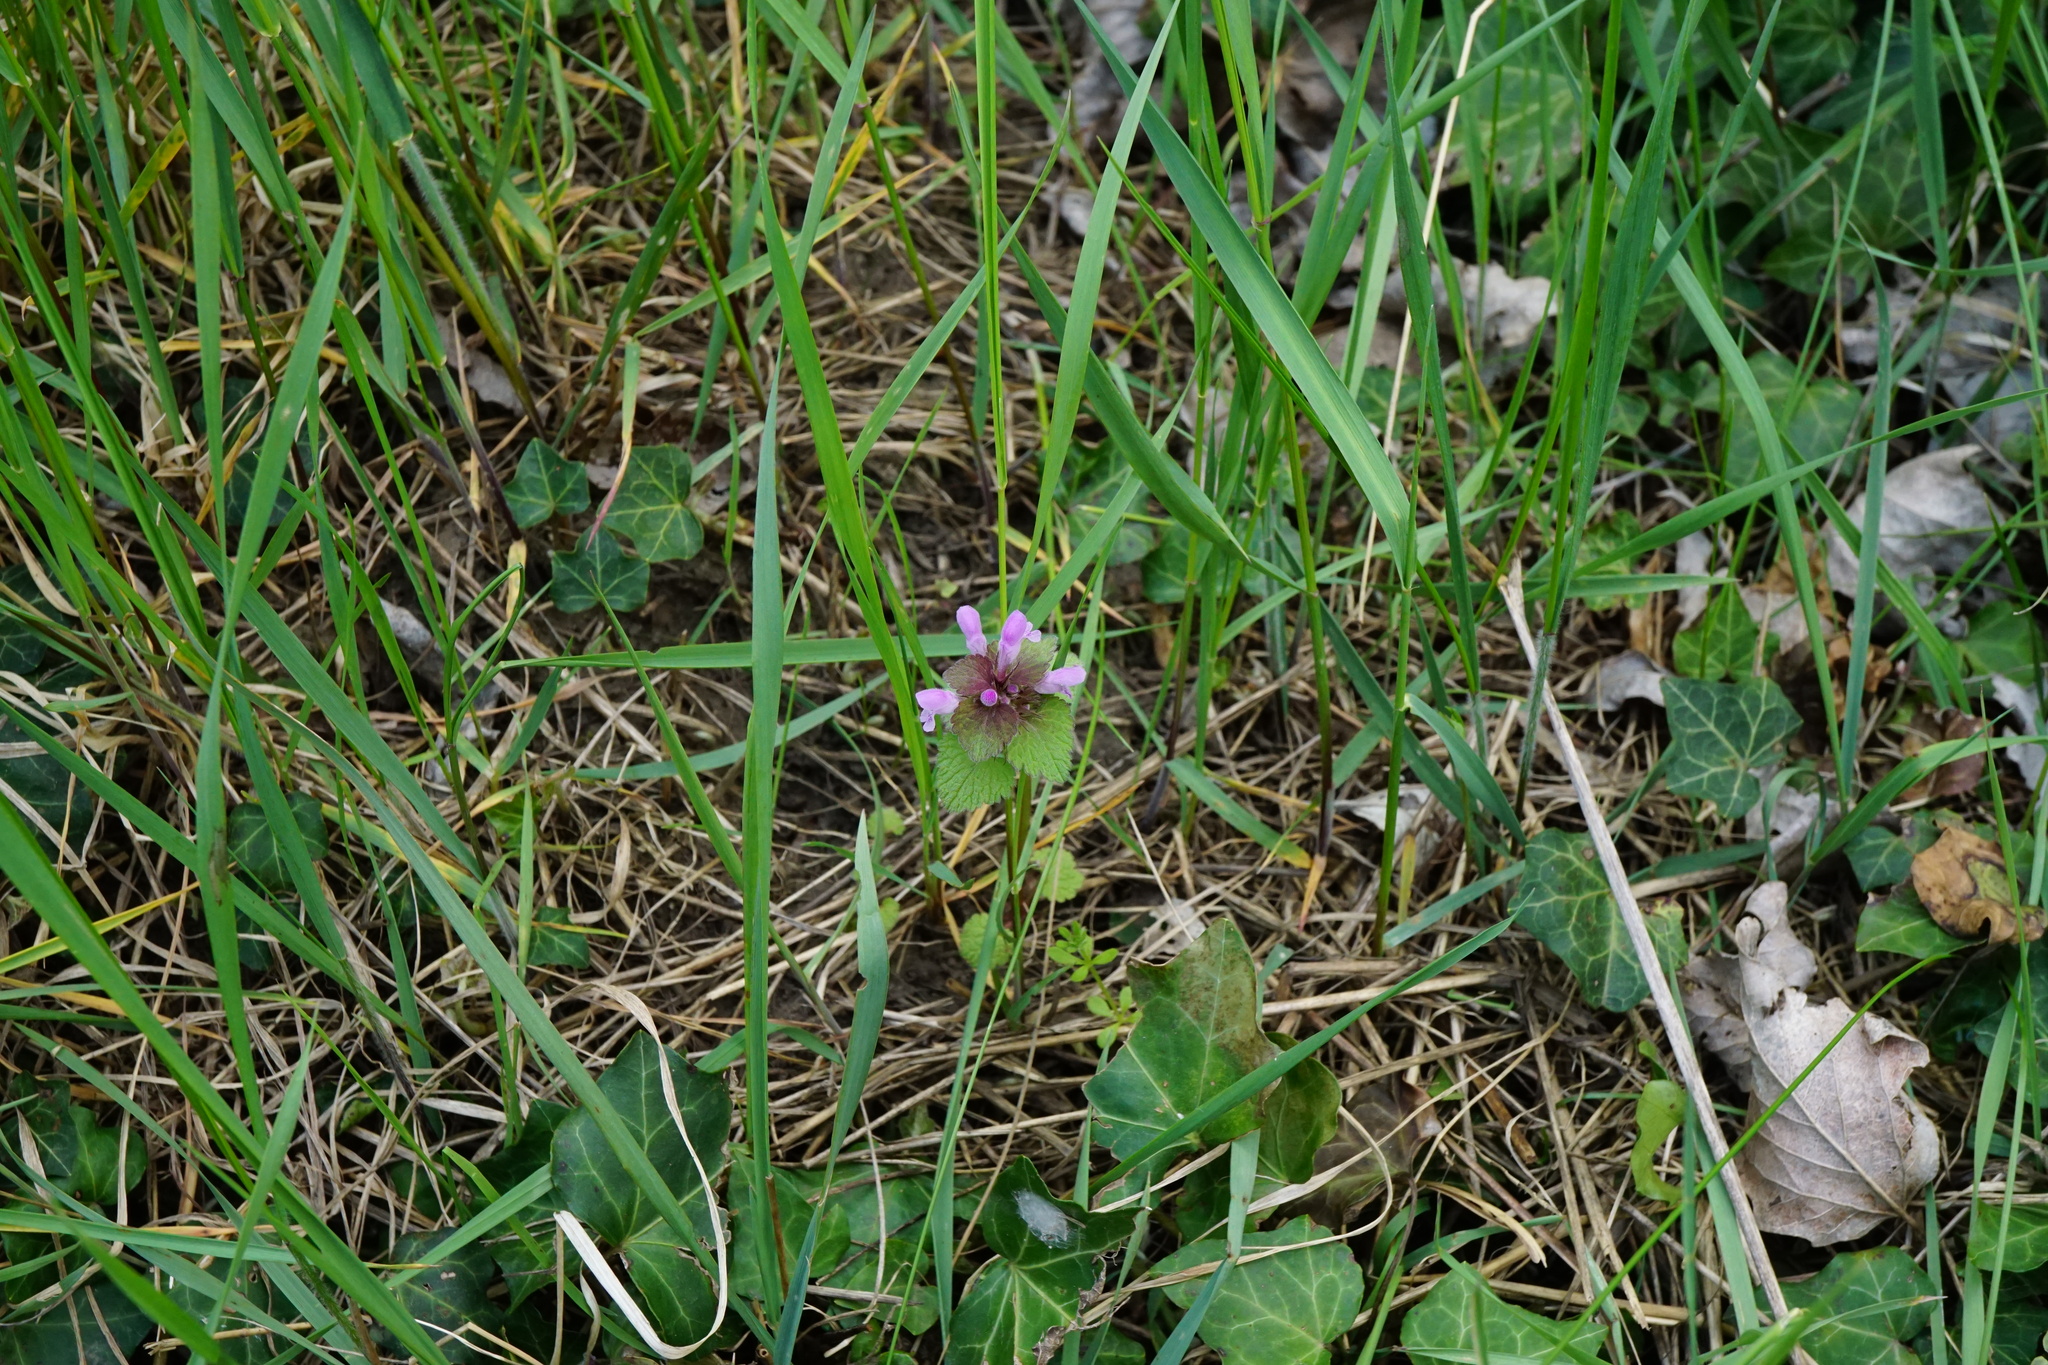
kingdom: Plantae
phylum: Tracheophyta
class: Magnoliopsida
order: Lamiales
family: Lamiaceae
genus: Lamium
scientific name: Lamium purpureum
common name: Red dead-nettle
